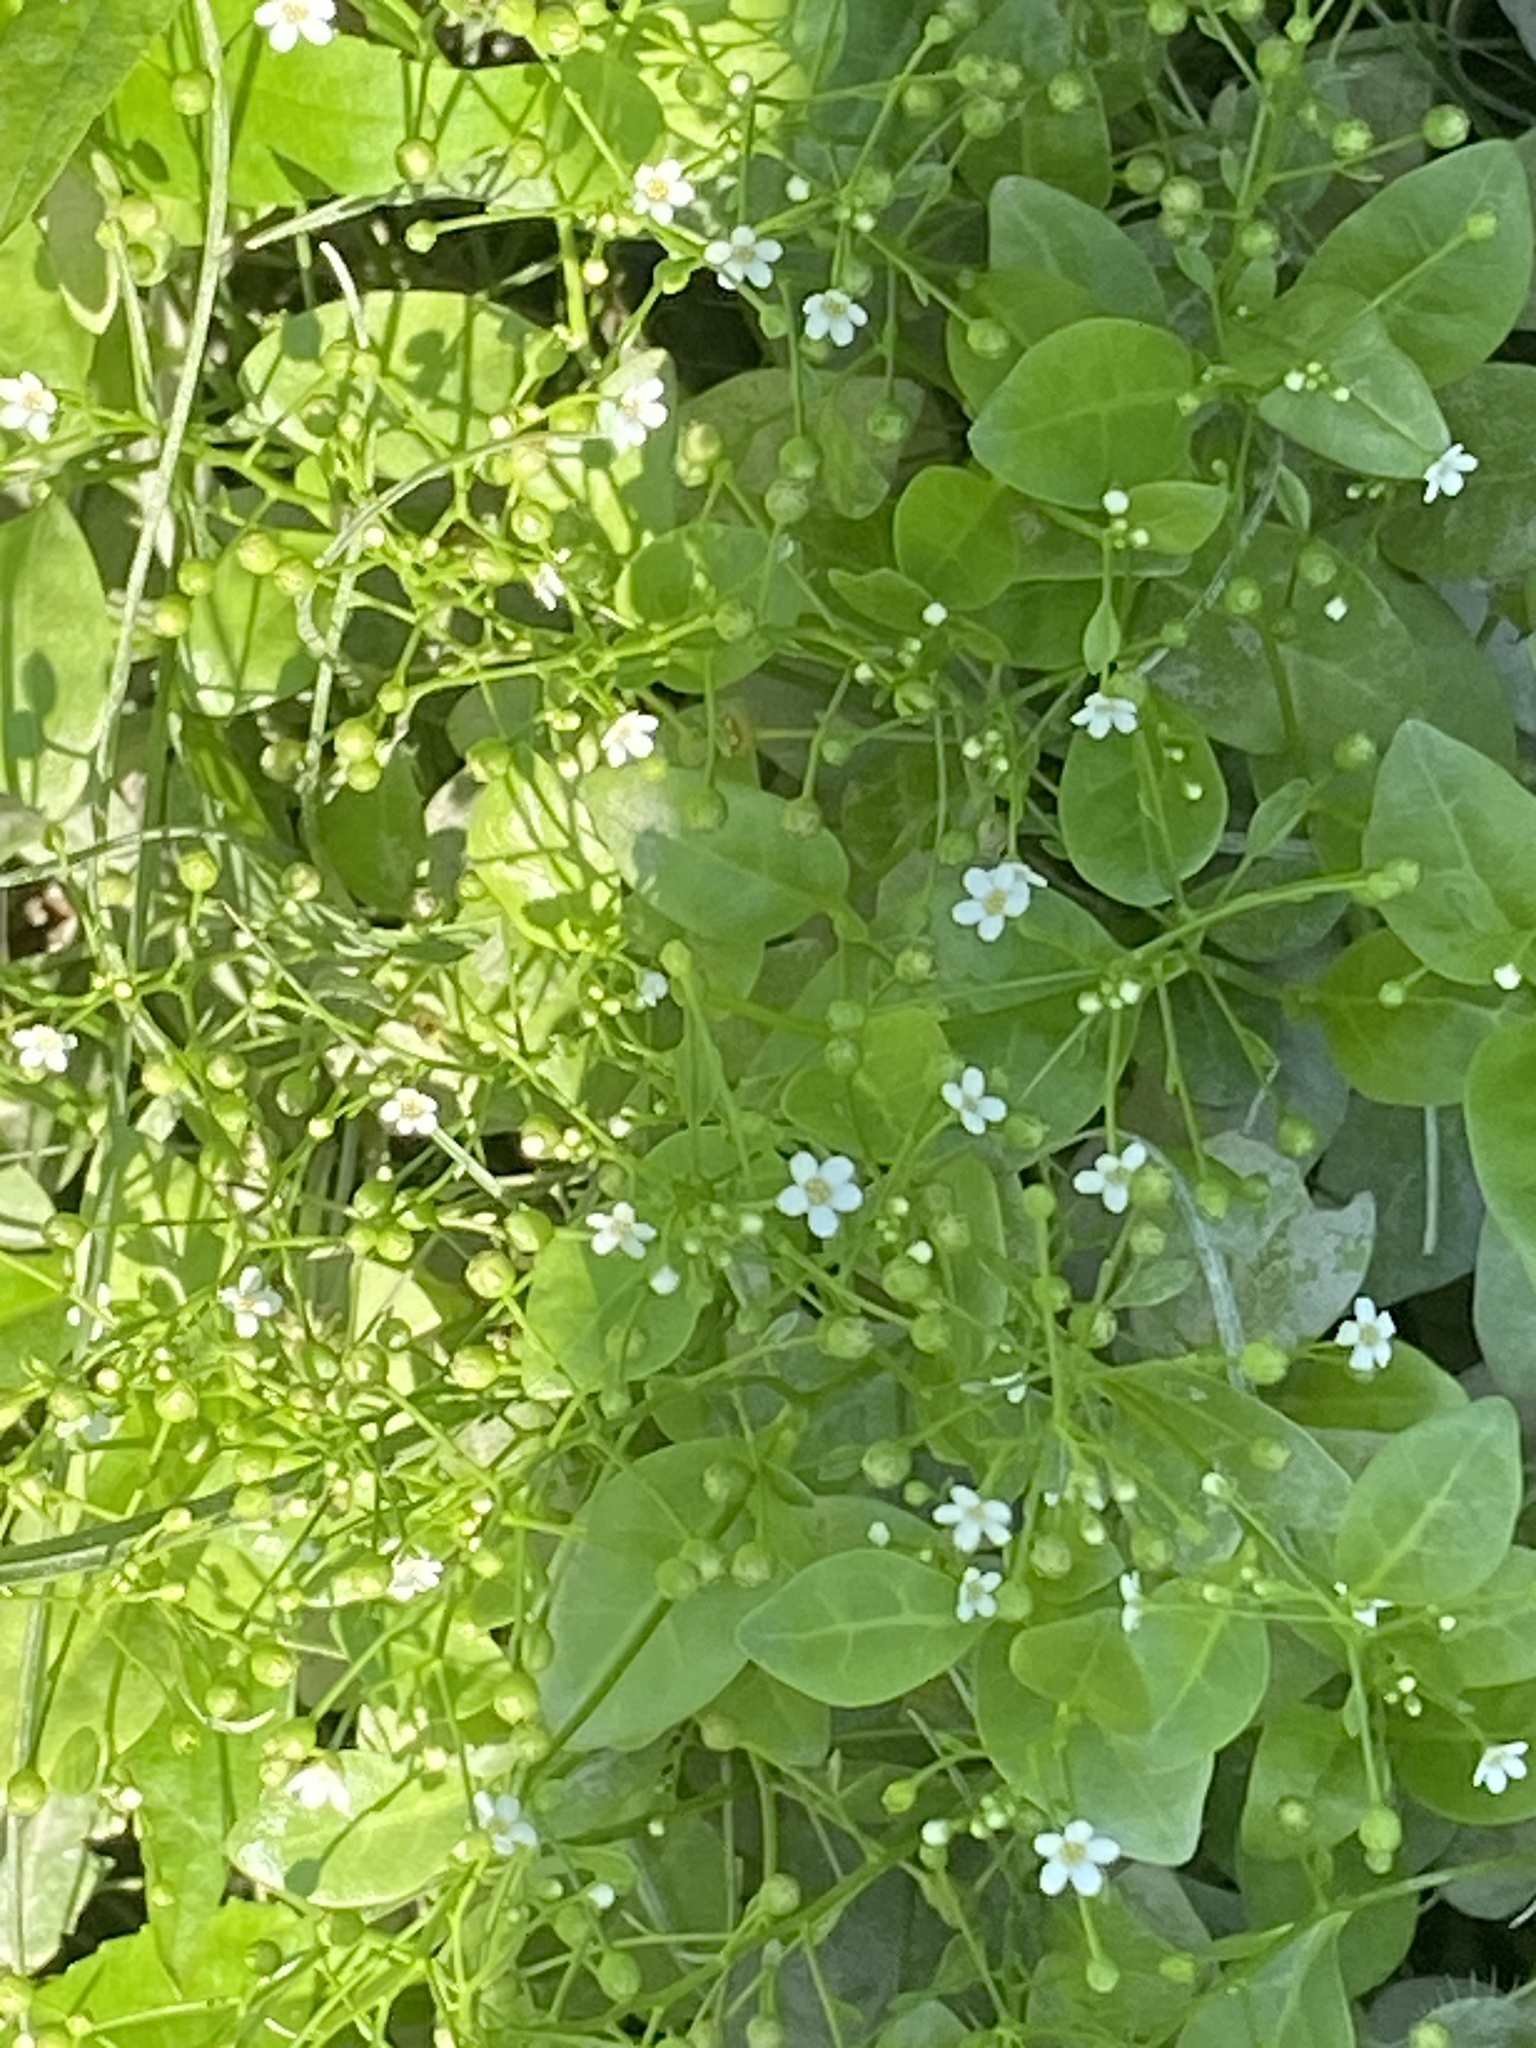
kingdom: Plantae
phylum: Tracheophyta
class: Magnoliopsida
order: Ericales
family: Primulaceae
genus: Samolus
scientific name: Samolus parviflorus
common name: False water pimpernel
